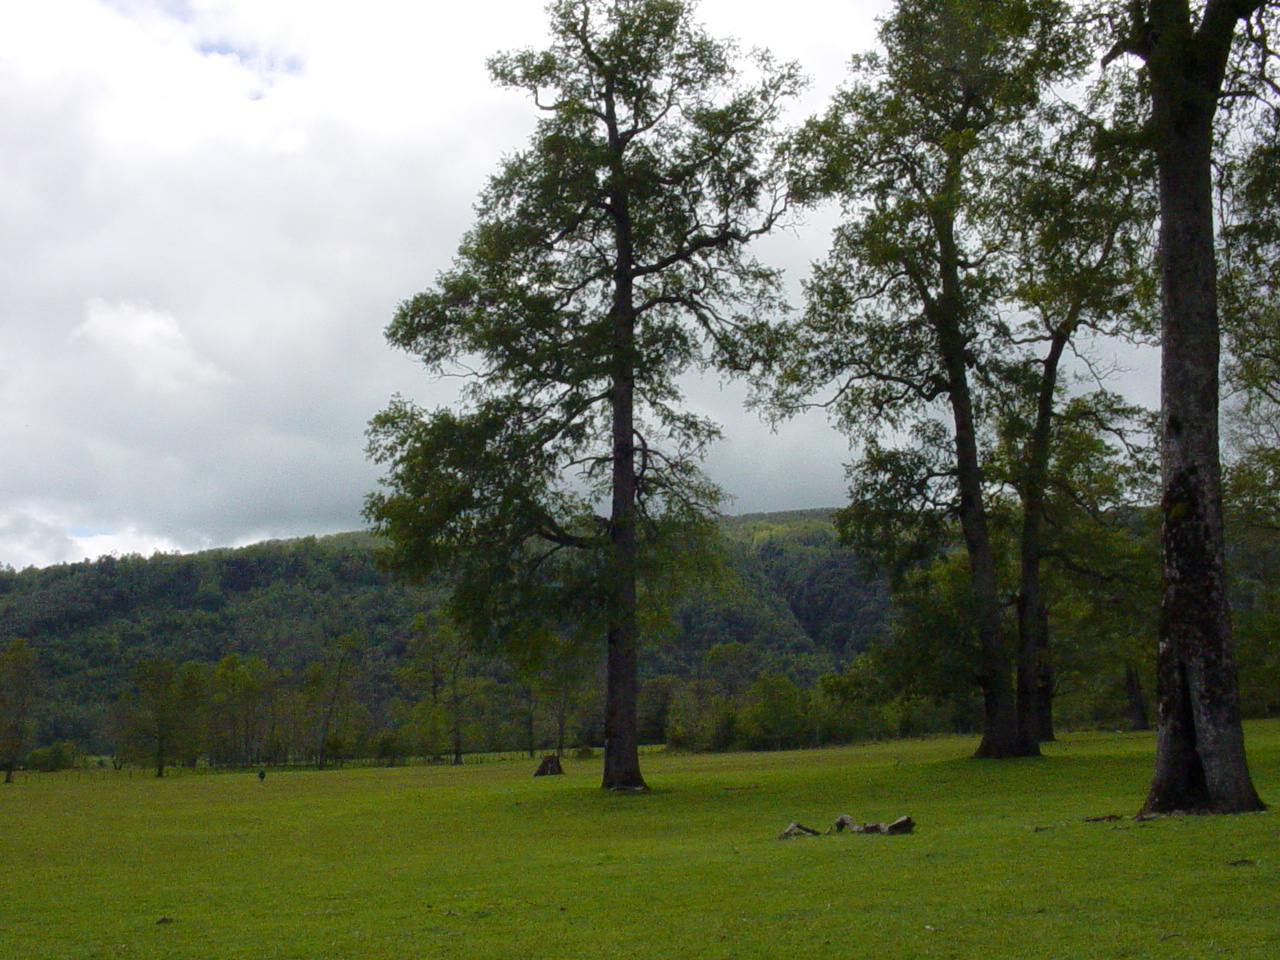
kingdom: Plantae
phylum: Tracheophyta
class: Magnoliopsida
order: Fagales
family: Nothofagaceae
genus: Nothofagus
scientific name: Nothofagus obliqua
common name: Roble beech
